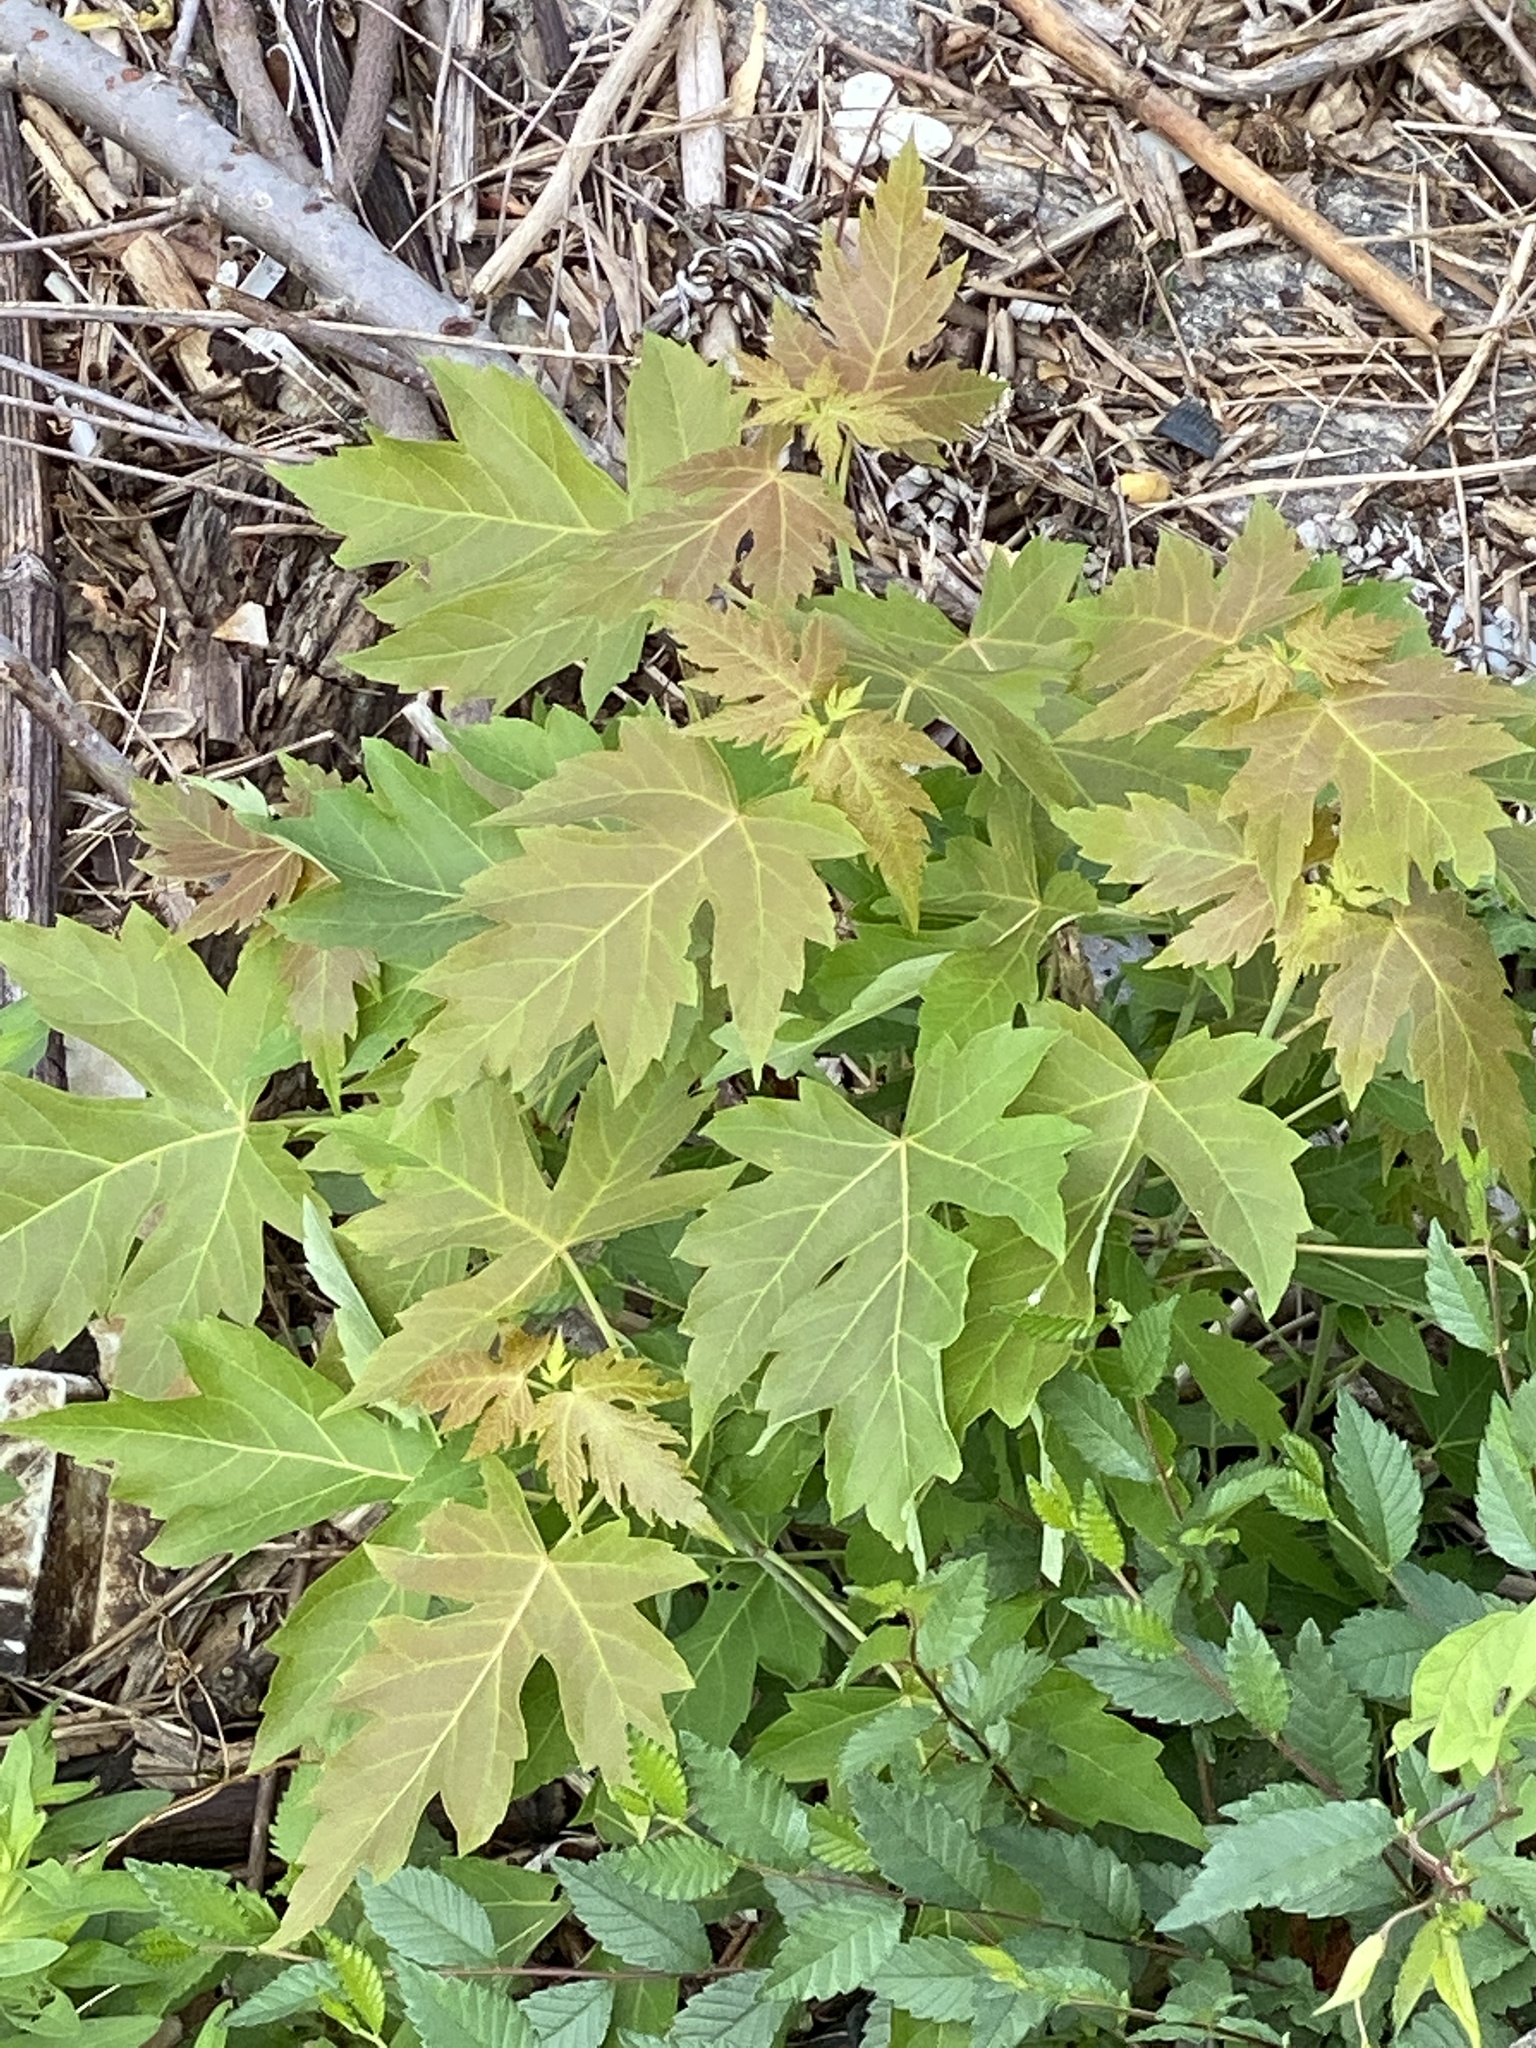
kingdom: Plantae
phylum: Tracheophyta
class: Magnoliopsida
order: Sapindales
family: Sapindaceae
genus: Acer
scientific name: Acer saccharinum
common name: Silver maple
